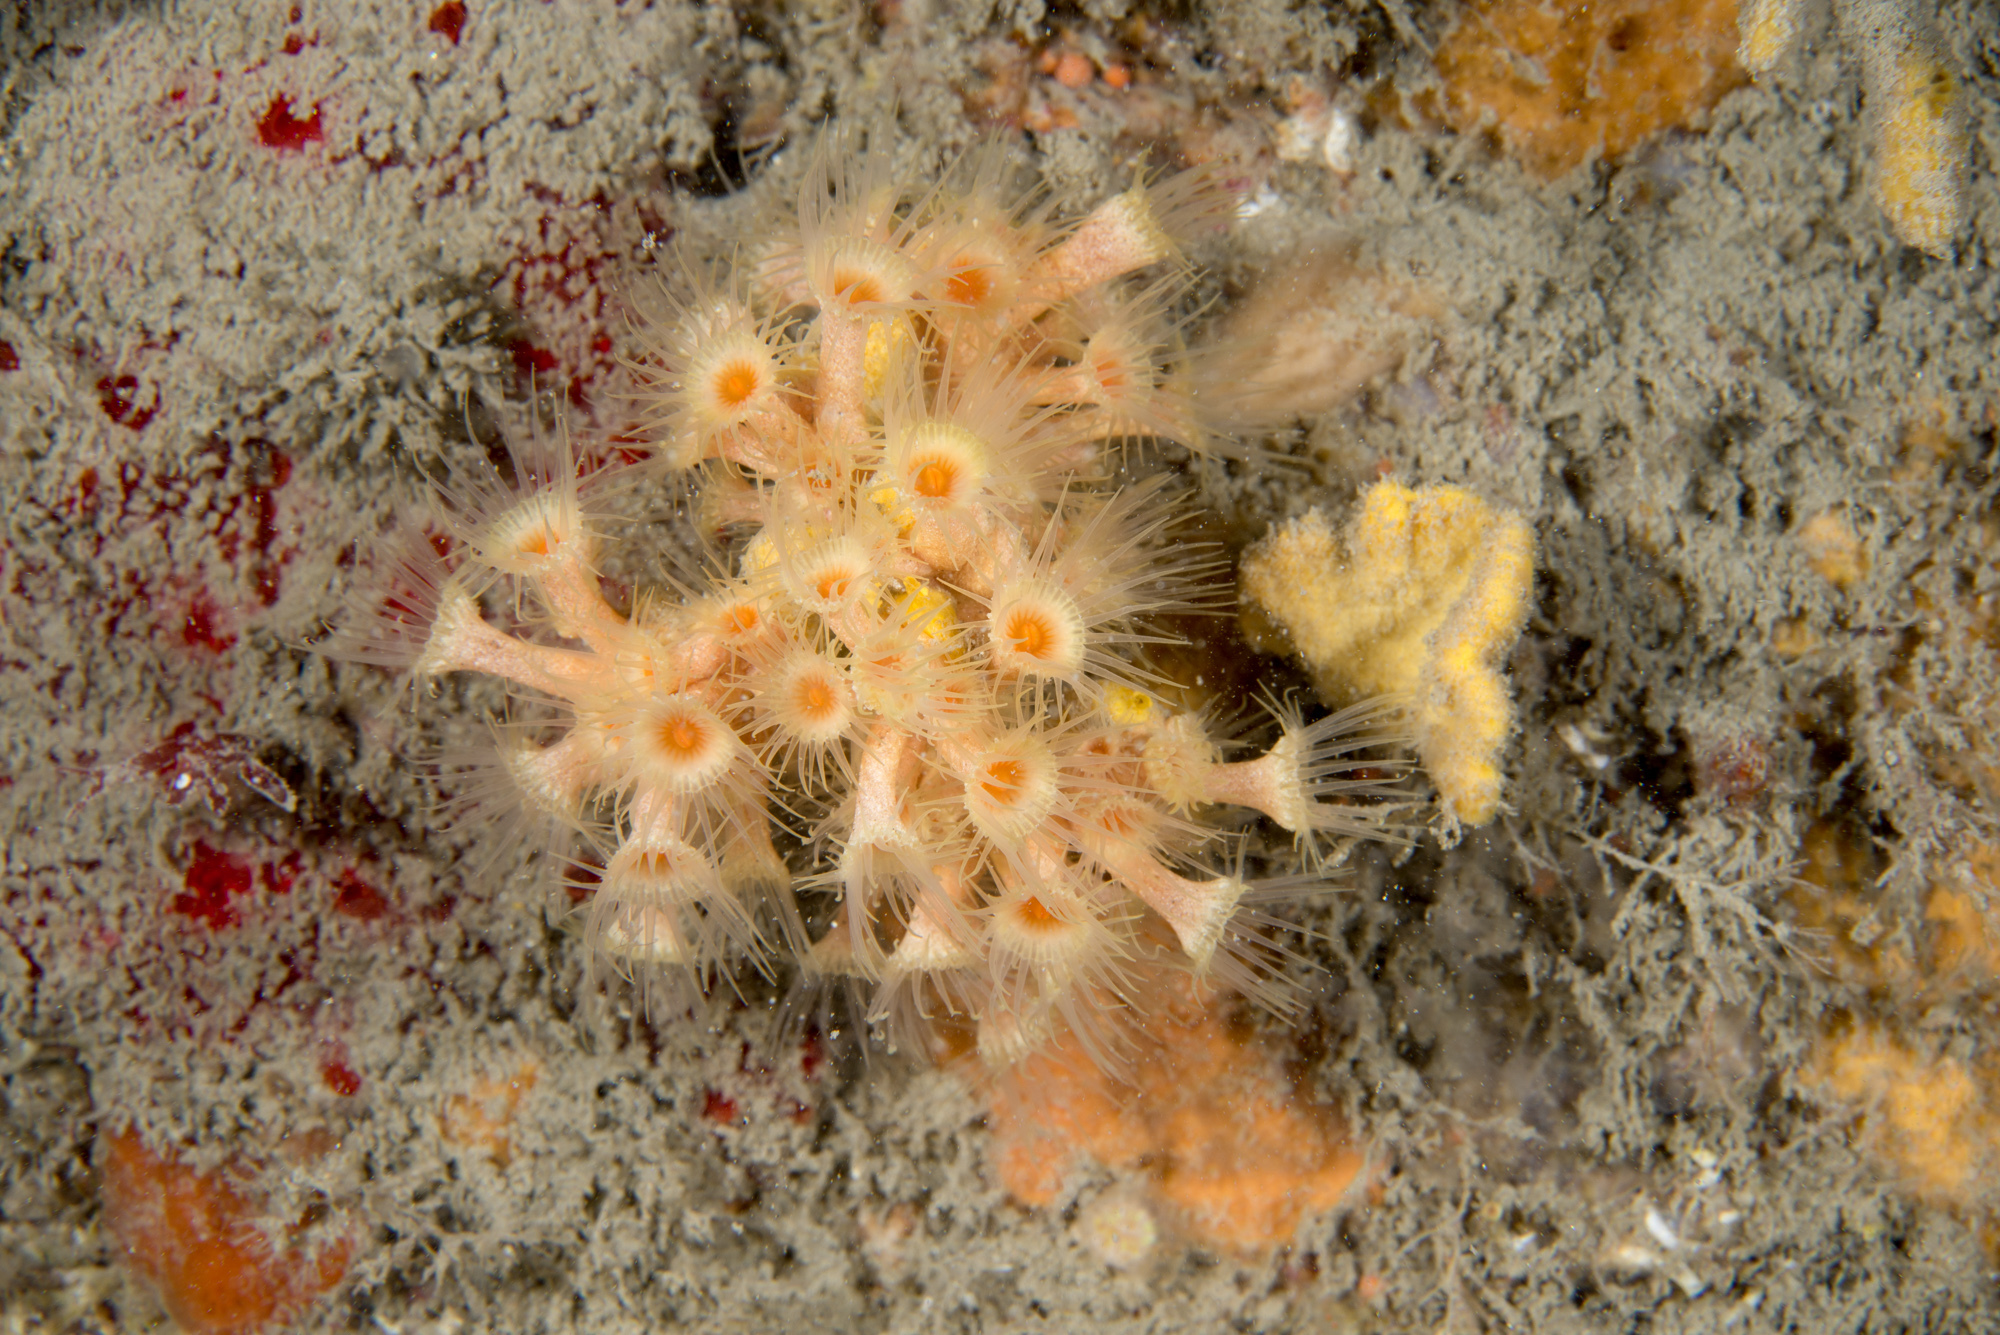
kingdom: Animalia
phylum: Cnidaria
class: Anthozoa
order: Zoantharia
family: Parazoanthidae
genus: Parazoanthus
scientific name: Parazoanthus axinellae
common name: Yellow cluster anemone
